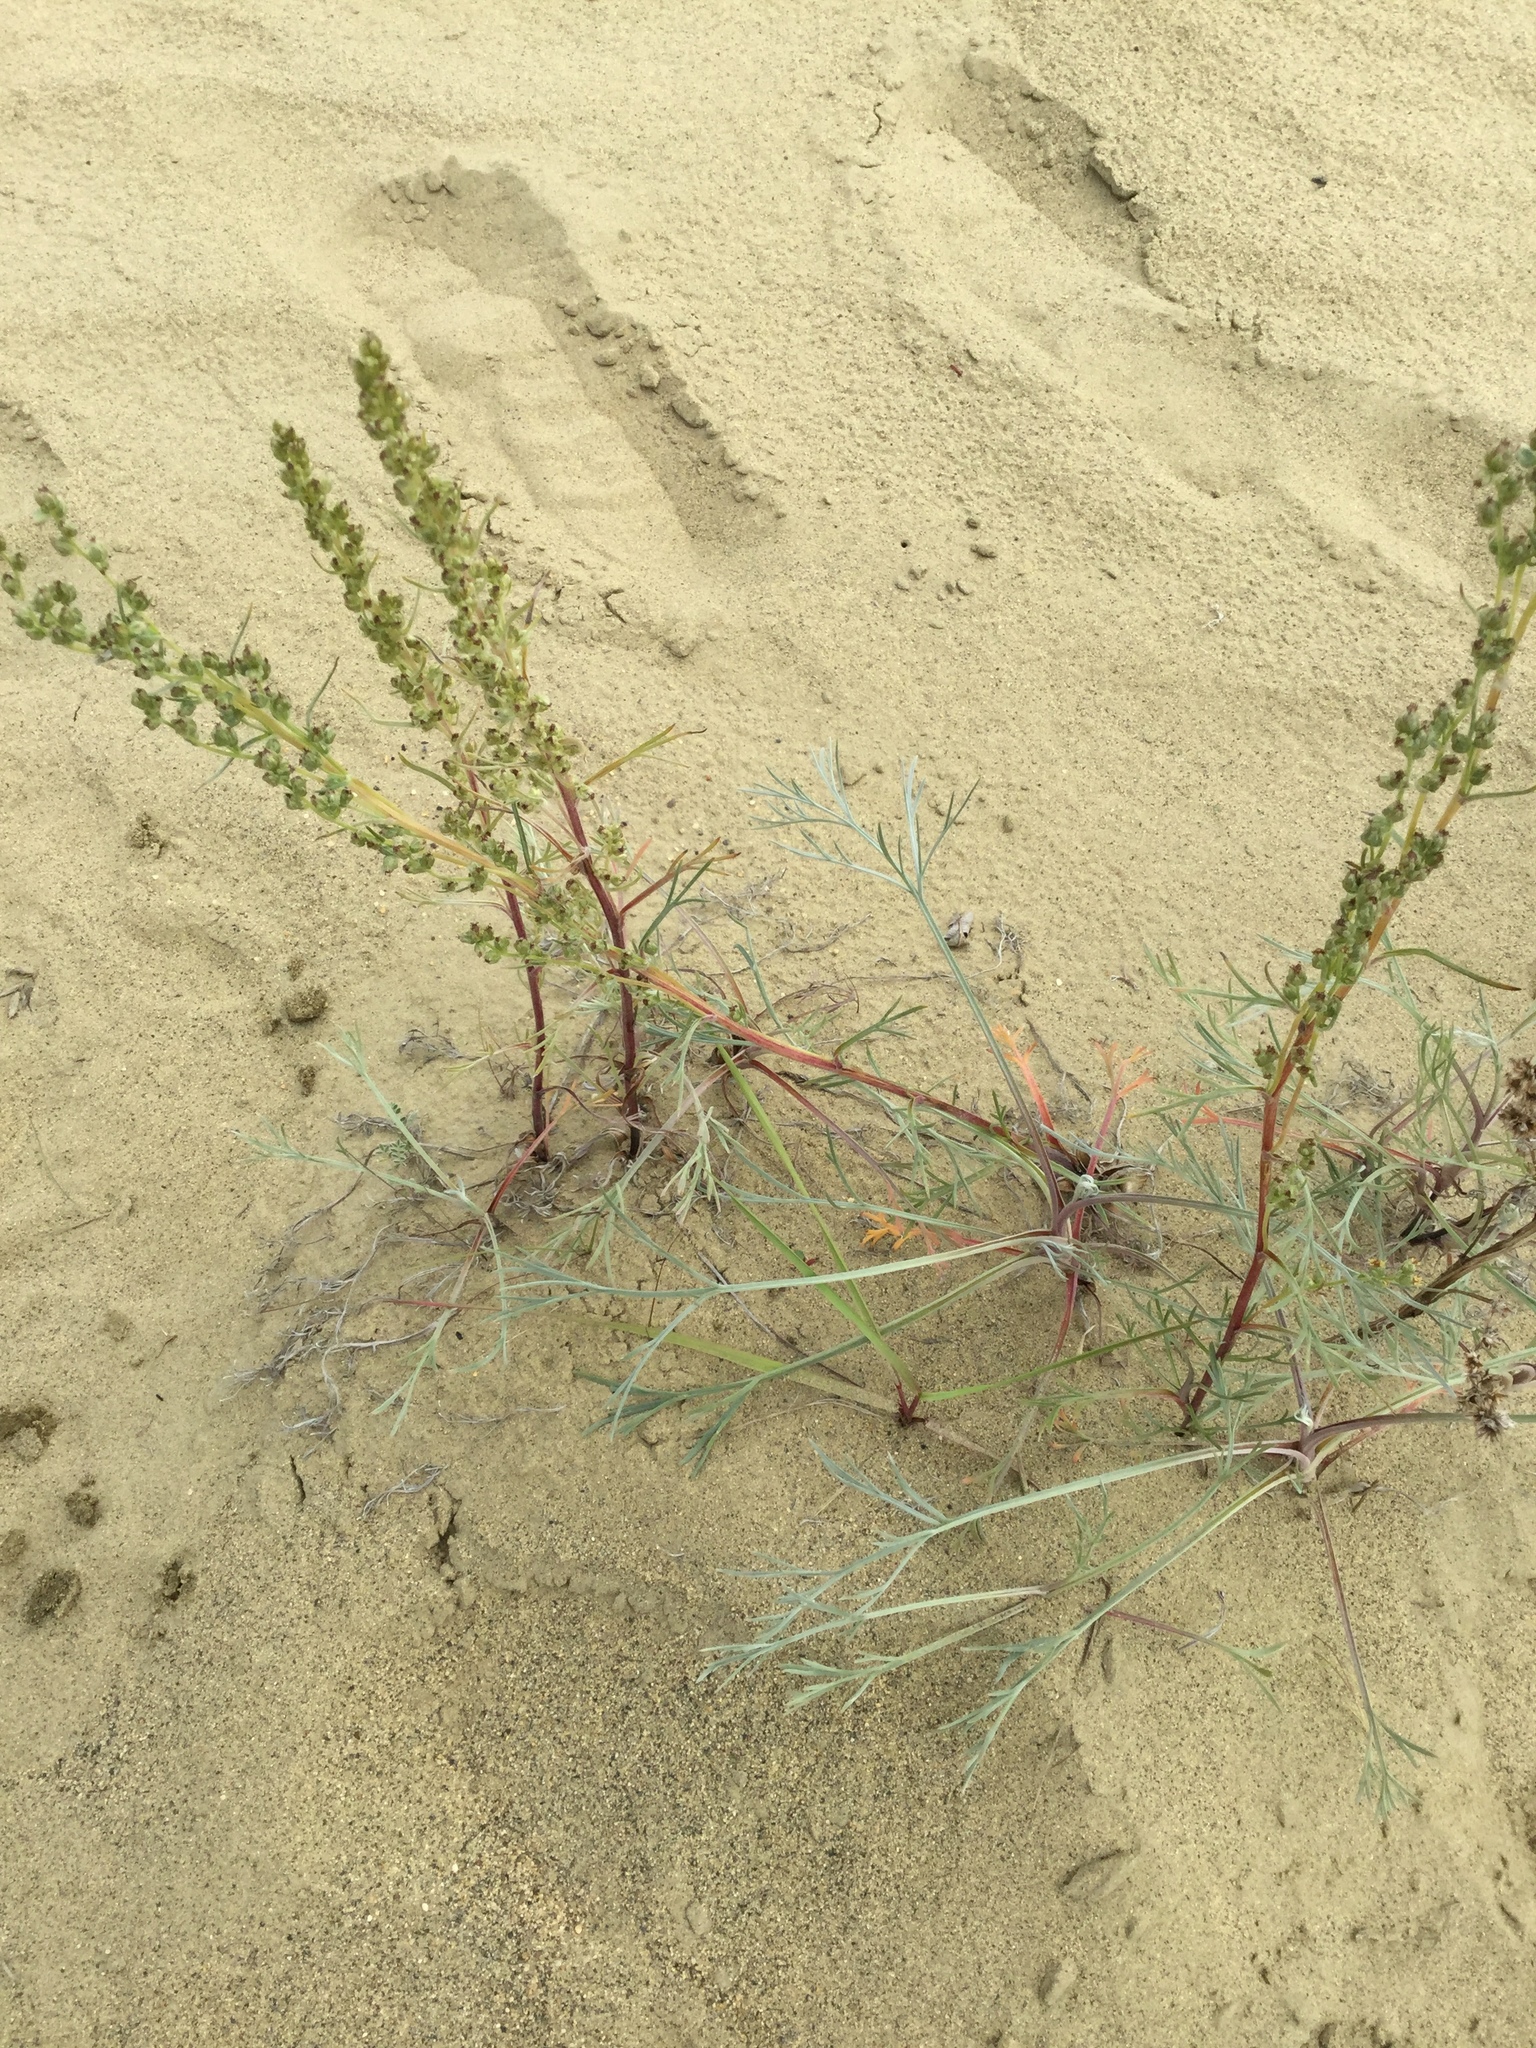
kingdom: Plantae
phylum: Tracheophyta
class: Magnoliopsida
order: Asterales
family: Asteraceae
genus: Artemisia
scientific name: Artemisia borealis
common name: Boreal sage
